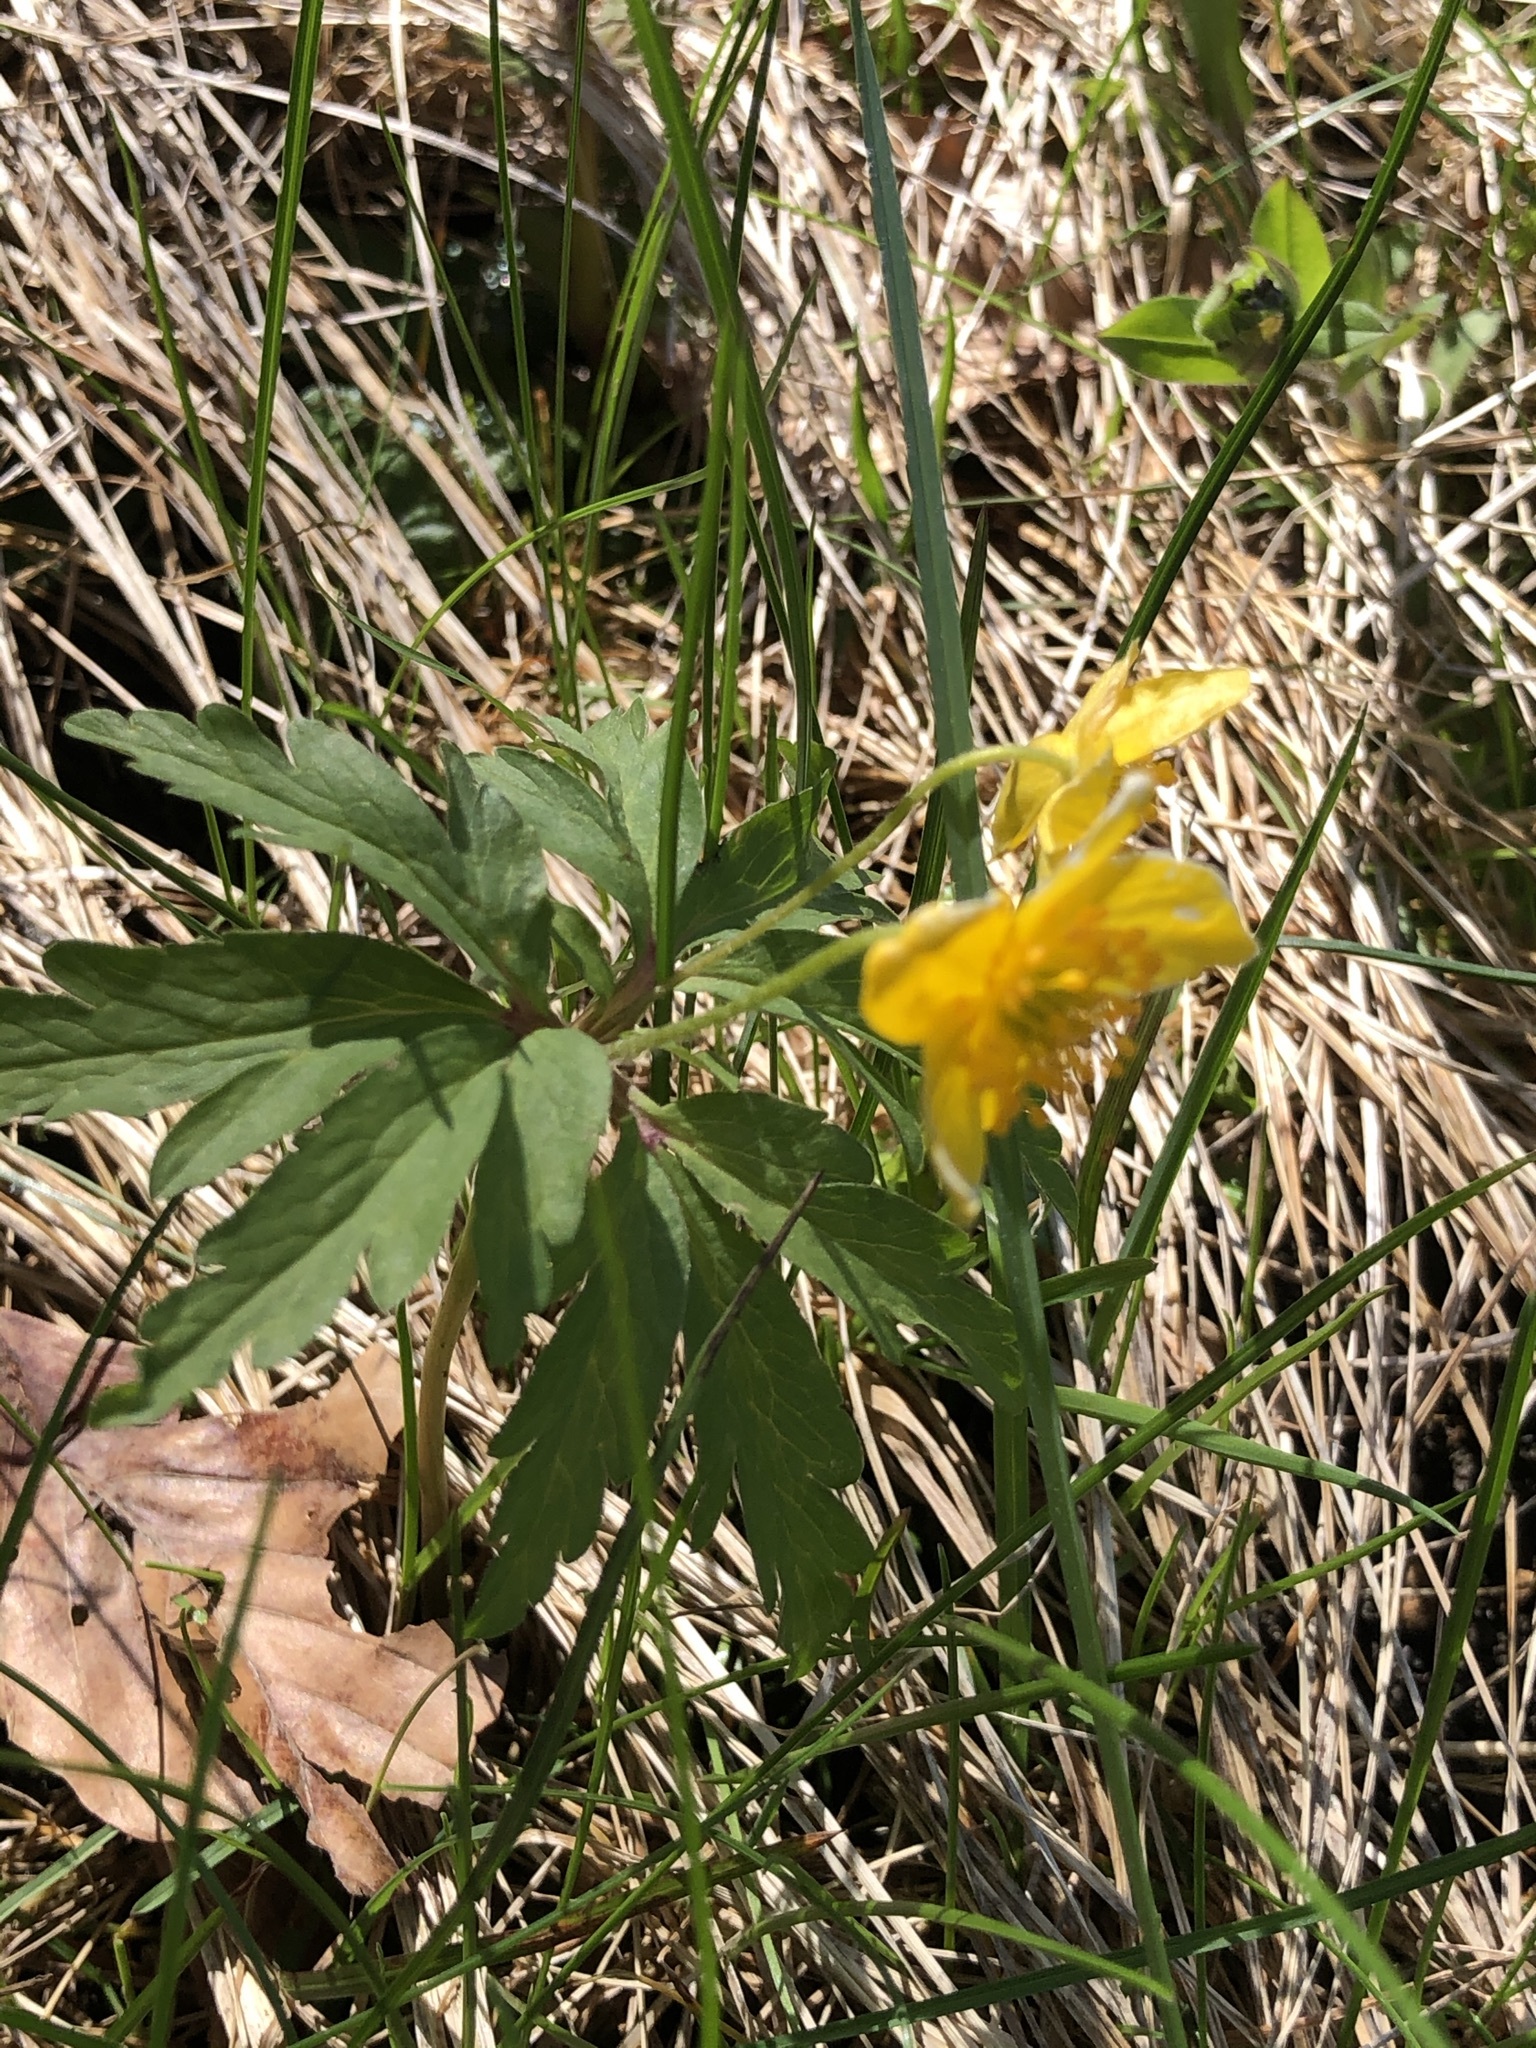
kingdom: Plantae
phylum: Tracheophyta
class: Magnoliopsida
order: Ranunculales
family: Ranunculaceae
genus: Anemone
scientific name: Anemone ranunculoides
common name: Yellow anemone
